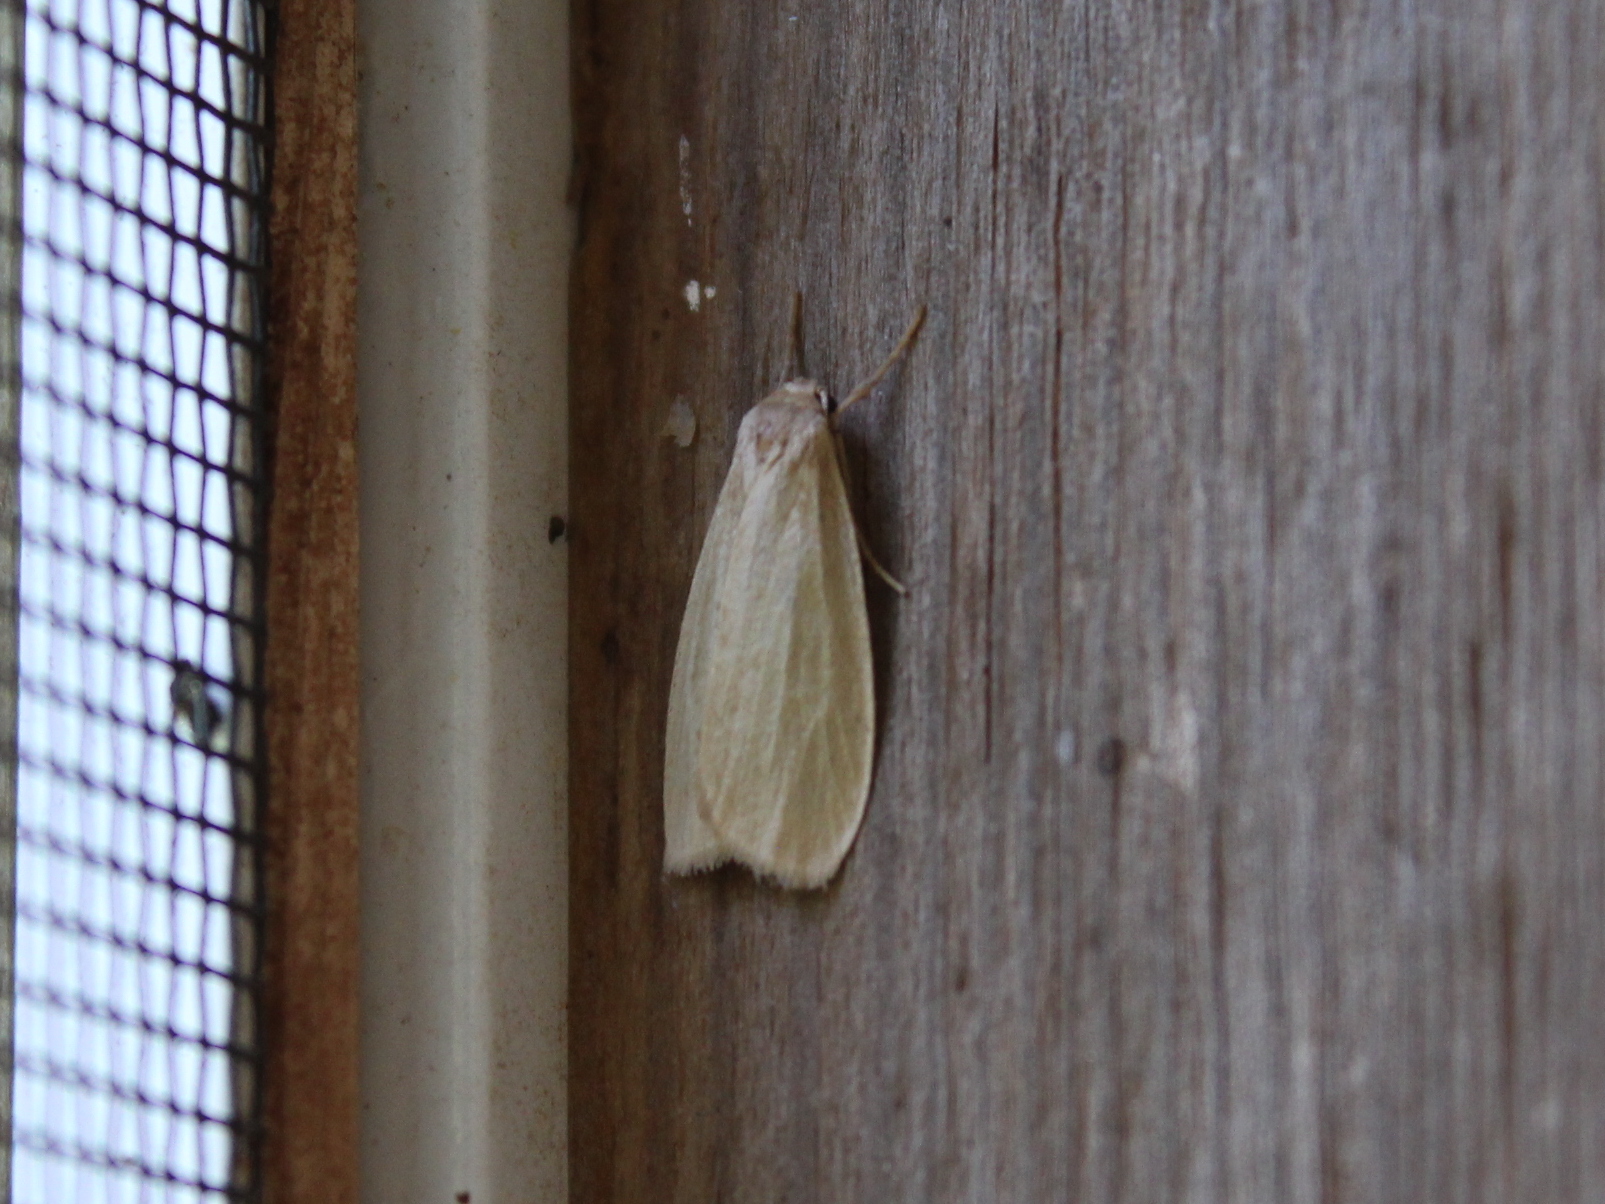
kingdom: Animalia
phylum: Arthropoda
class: Insecta
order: Lepidoptera
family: Erebidae
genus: Crambidia
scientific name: Crambidia pallida
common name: Pale lichen moth
